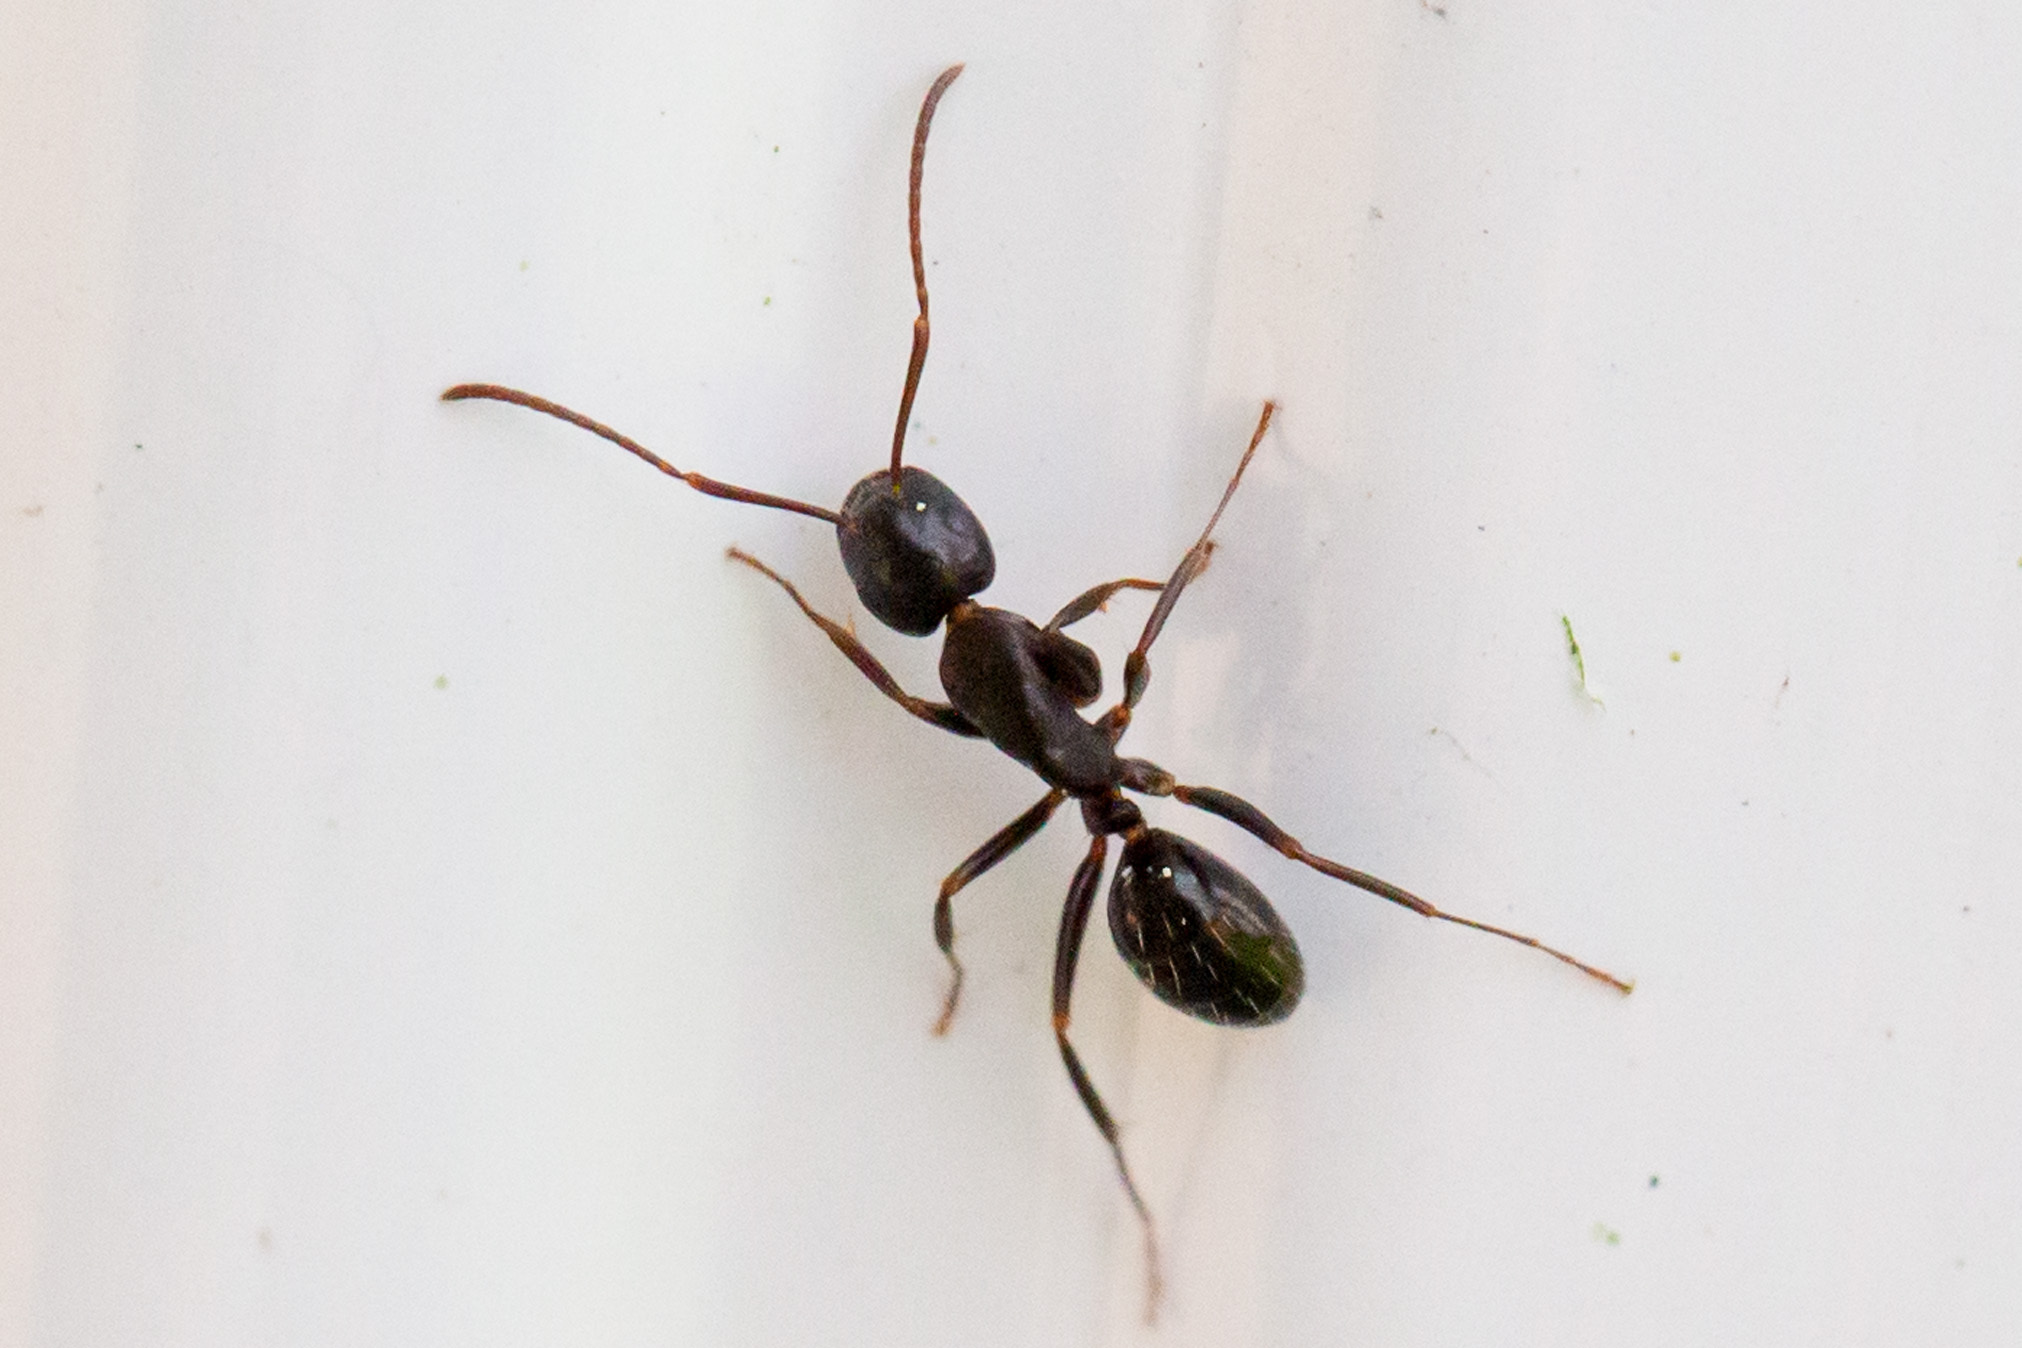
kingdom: Animalia
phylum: Arthropoda
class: Insecta
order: Hymenoptera
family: Formicidae
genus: Camponotus
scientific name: Camponotus nearcticus
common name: Smaller carpenter ant
